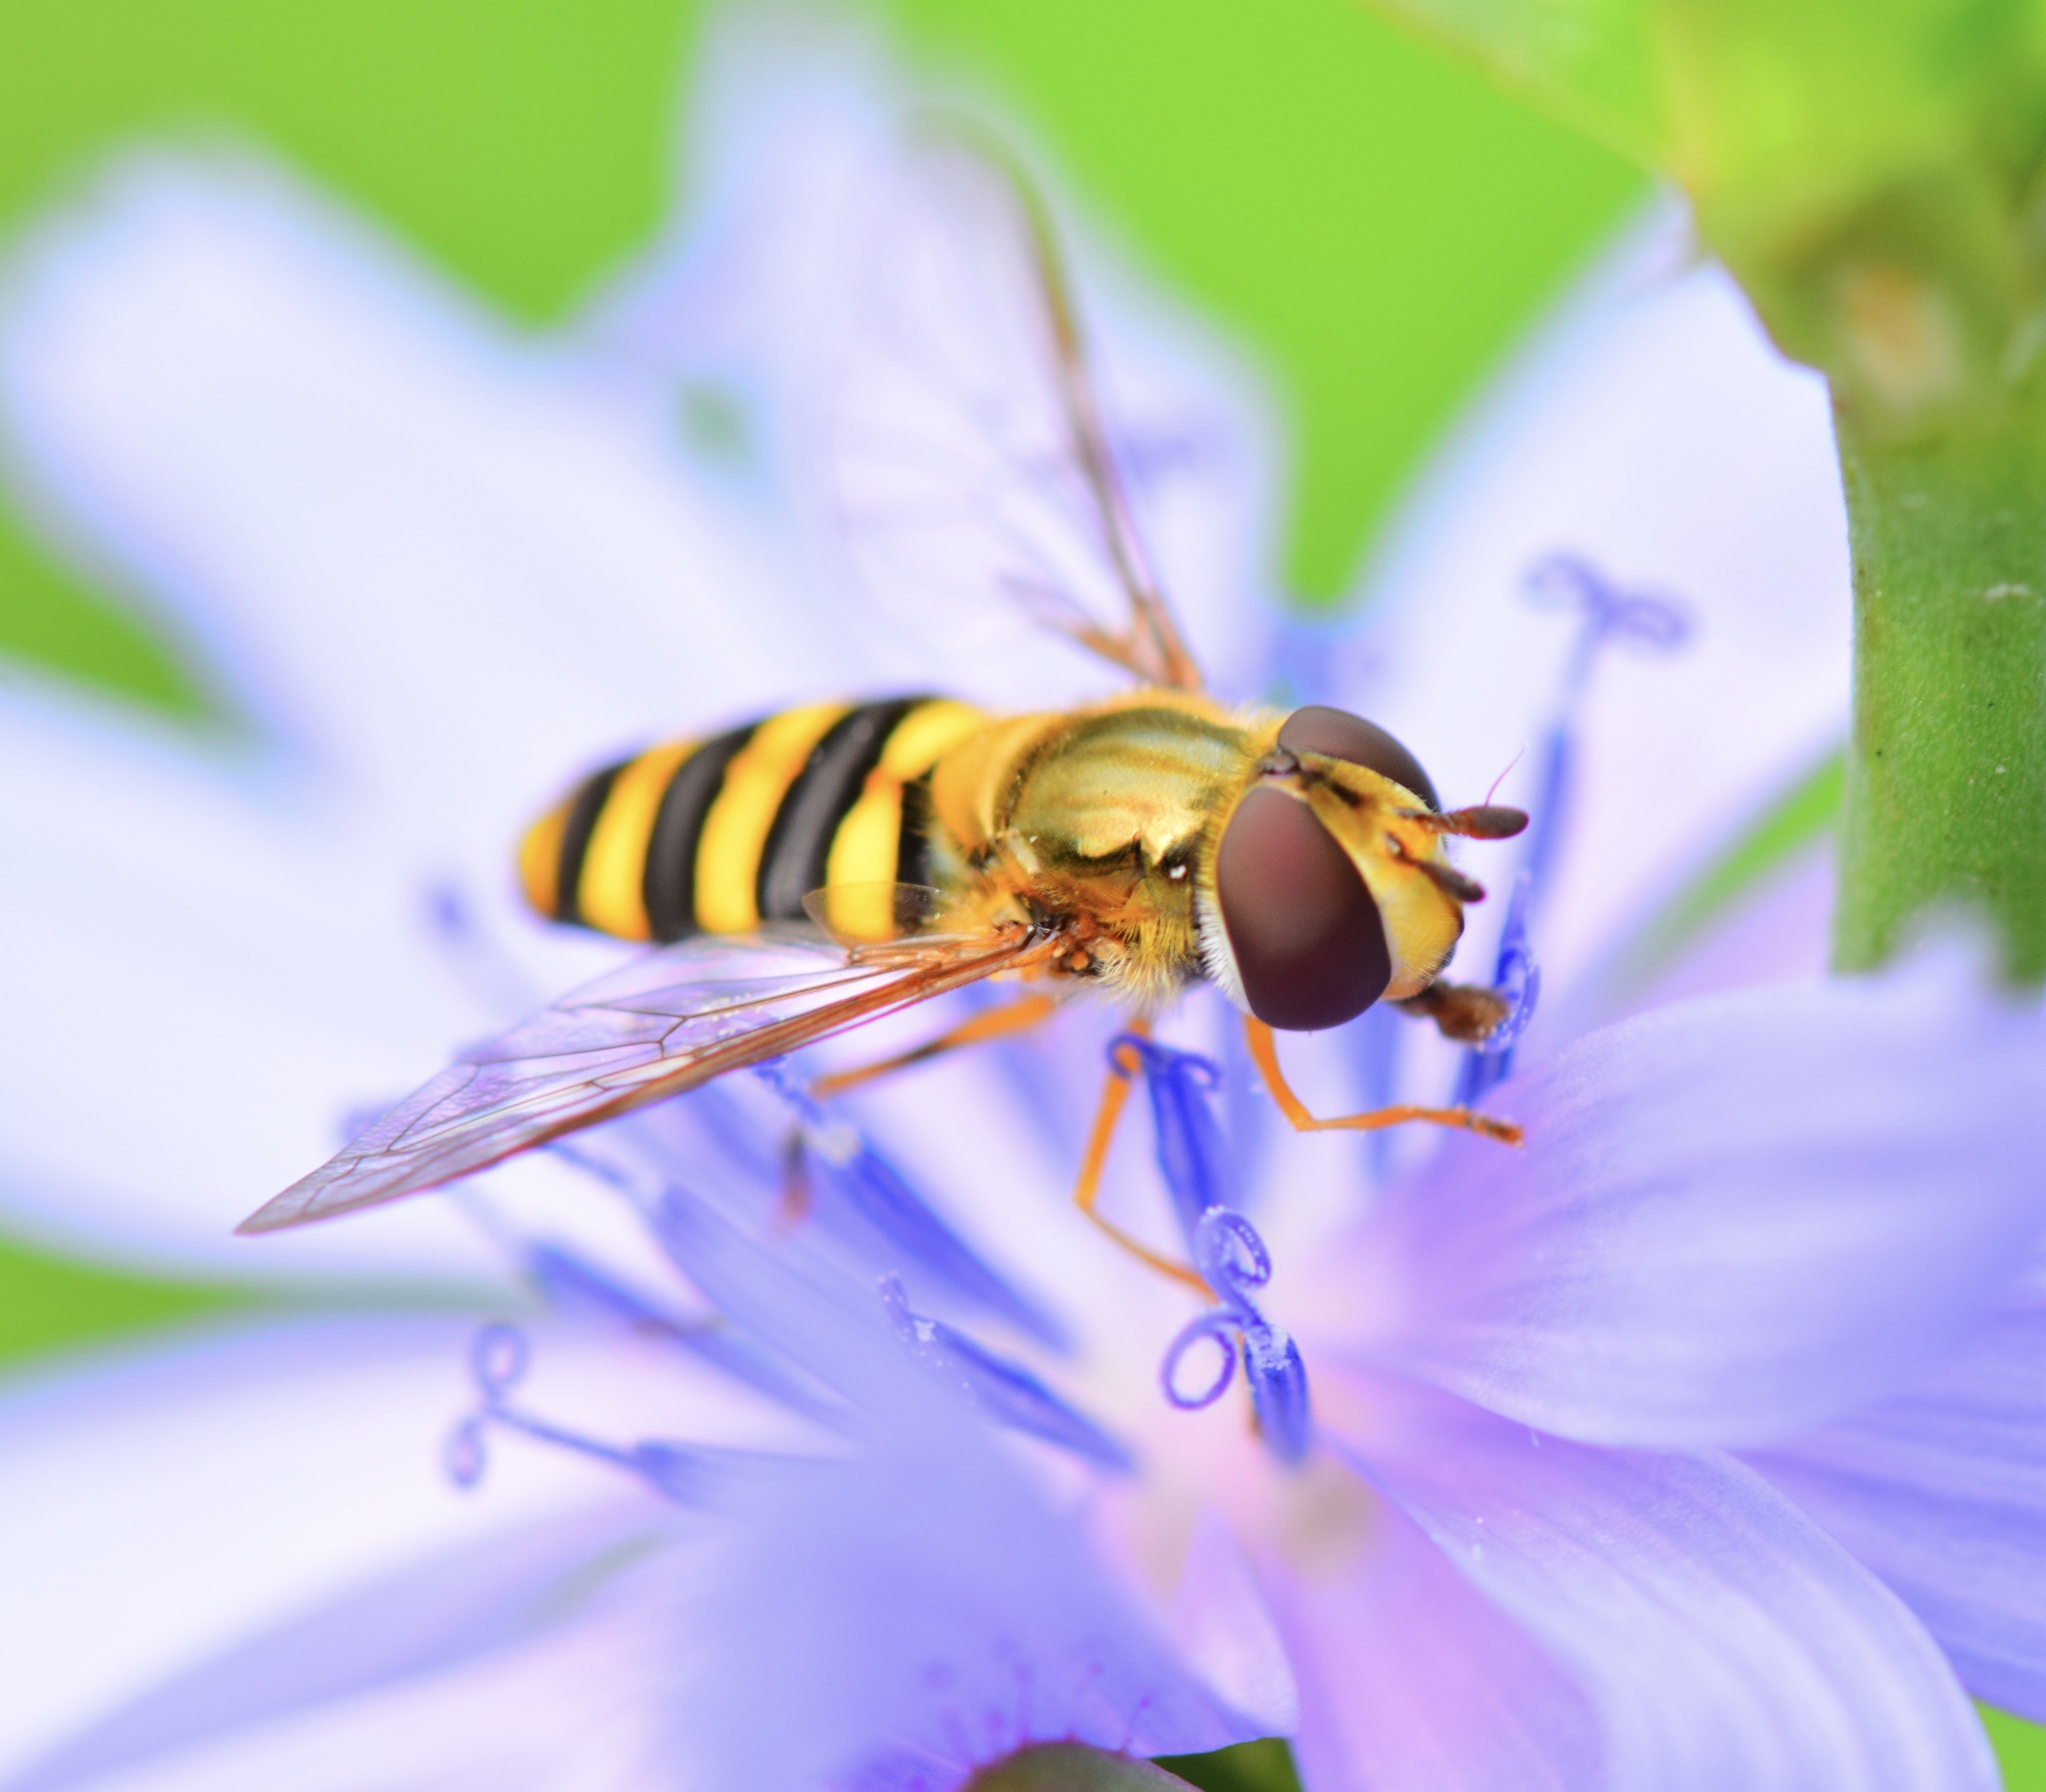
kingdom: Animalia
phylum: Arthropoda
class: Insecta
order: Diptera
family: Syrphidae
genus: Eupeodes
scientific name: Eupeodes
